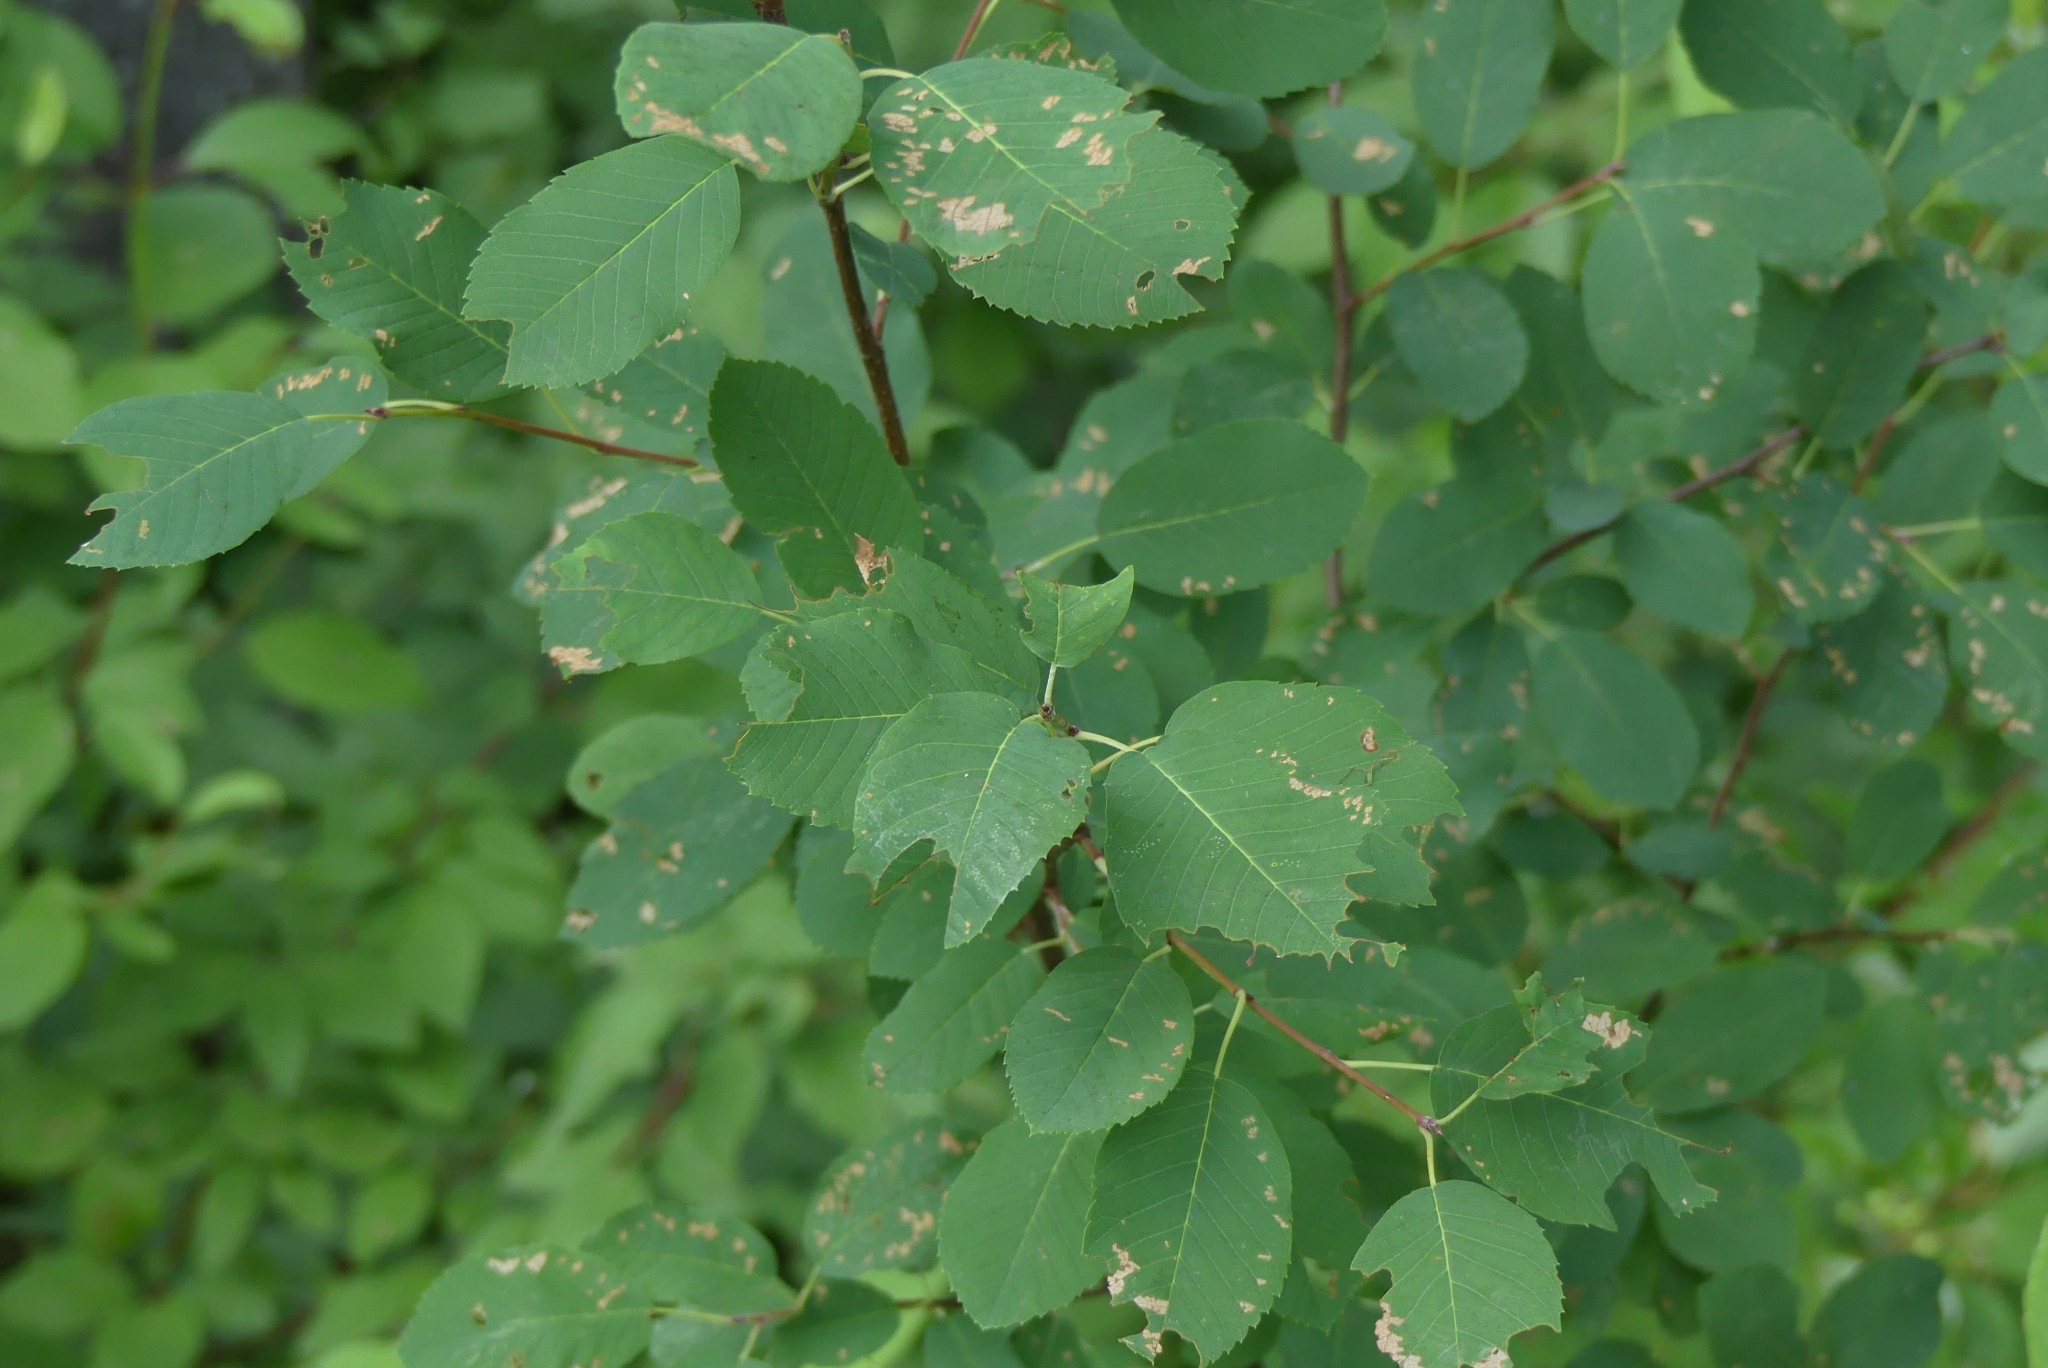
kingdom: Plantae
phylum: Tracheophyta
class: Magnoliopsida
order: Rosales
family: Rosaceae
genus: Amelanchier
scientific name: Amelanchier alnifolia
